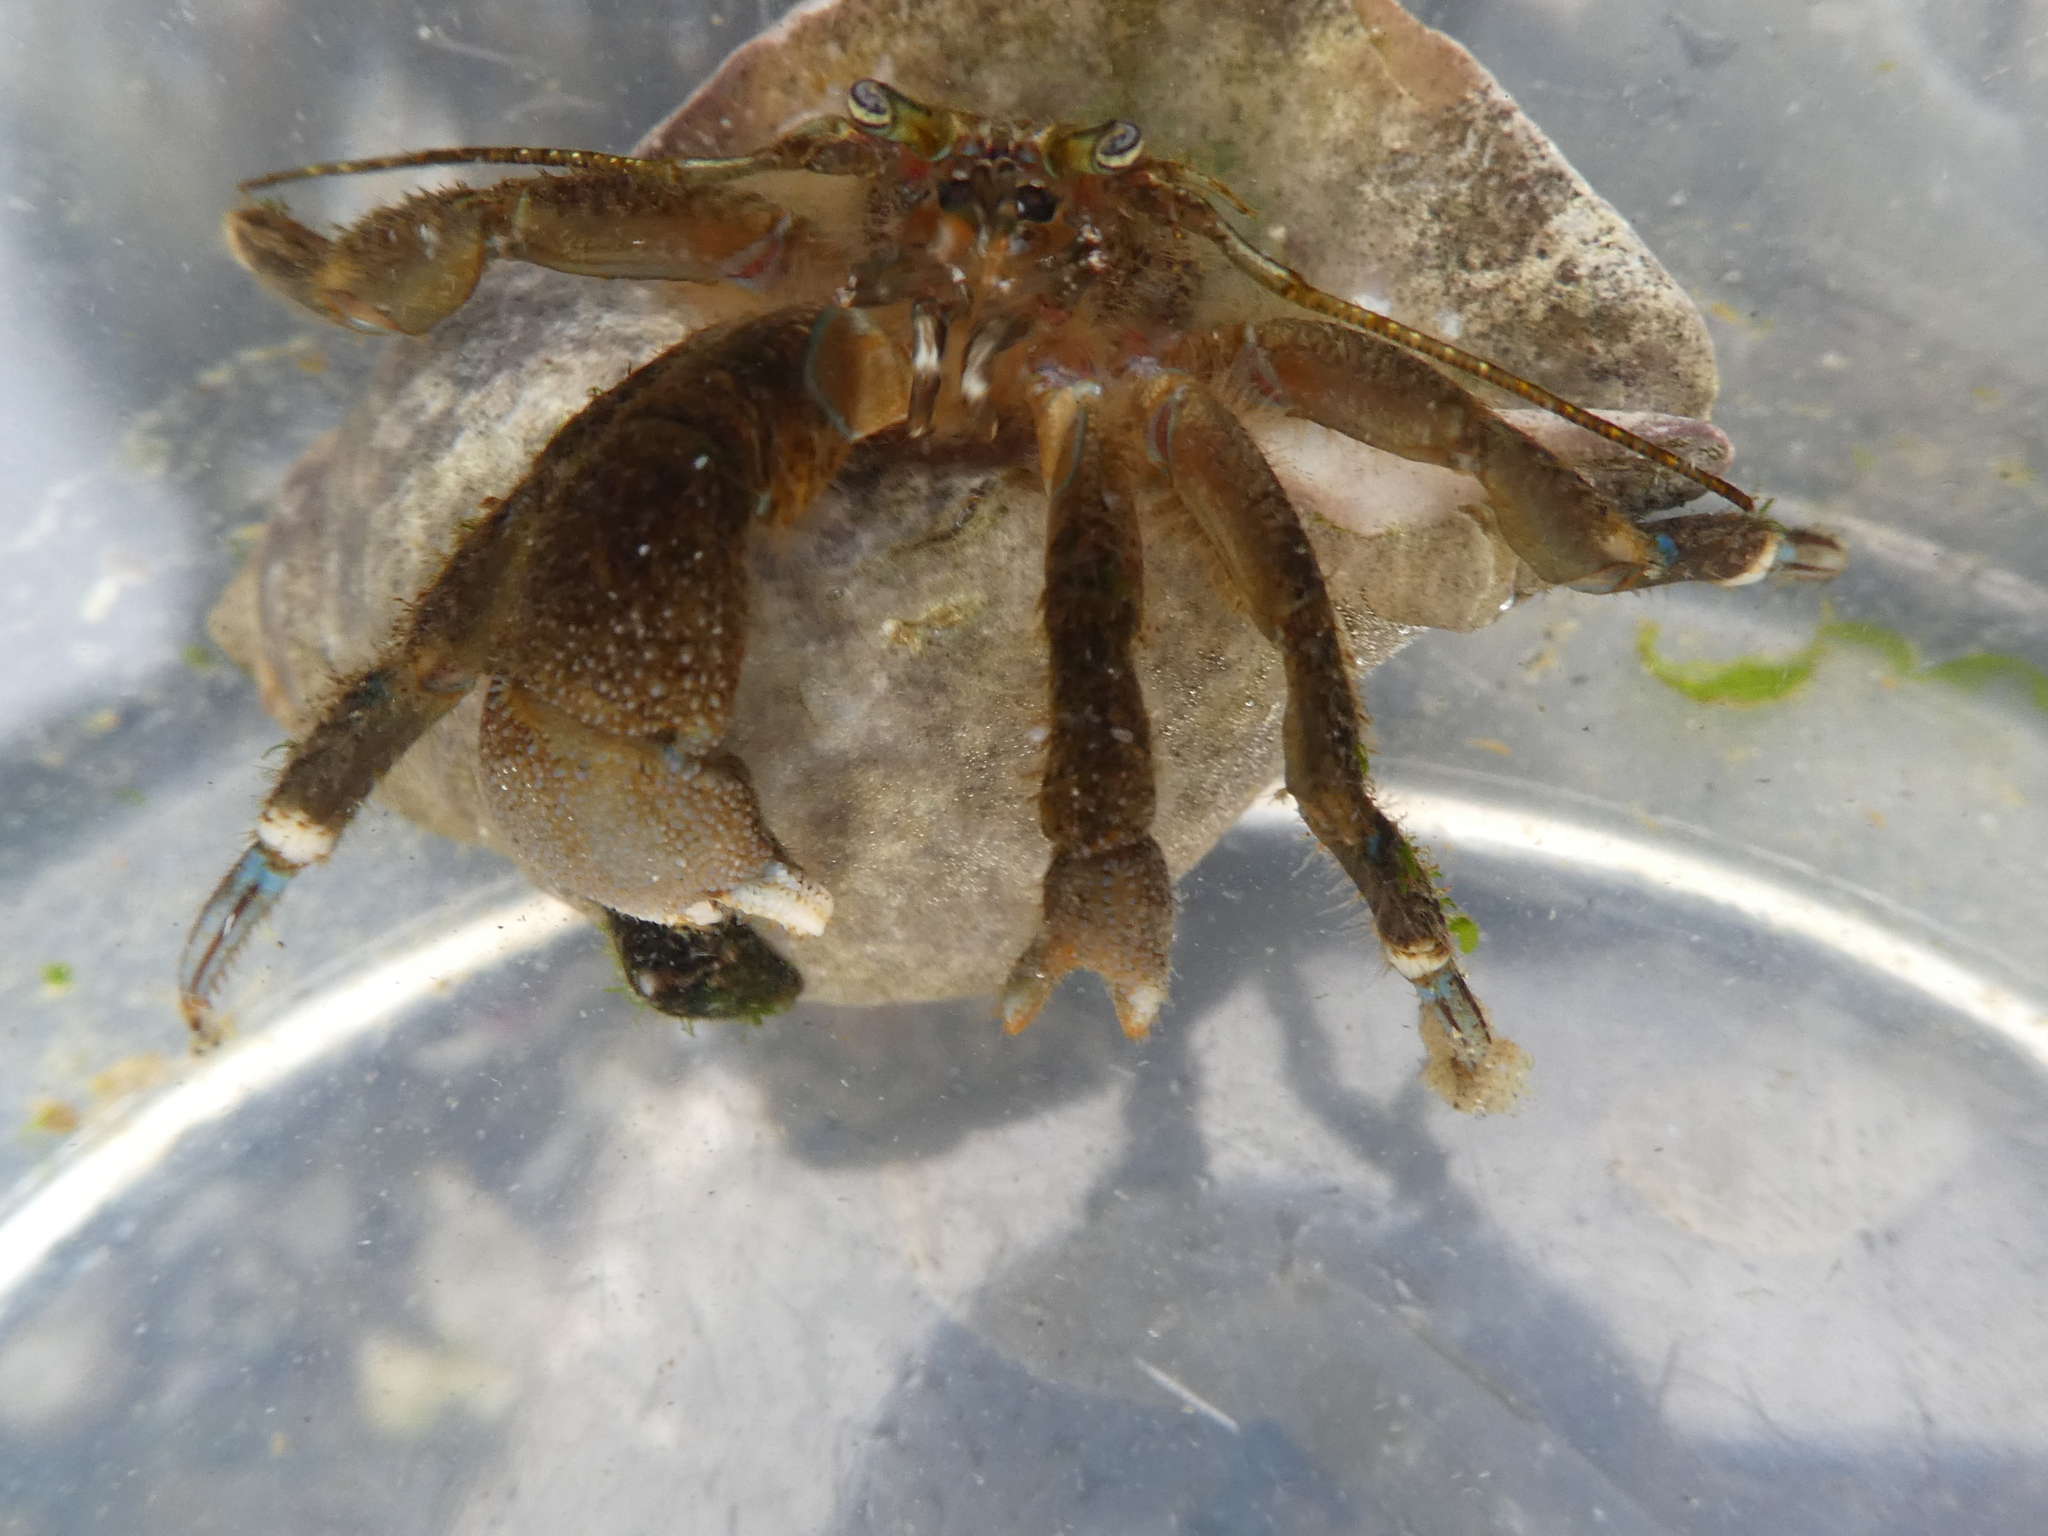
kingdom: Animalia
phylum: Arthropoda
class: Malacostraca
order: Decapoda
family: Paguridae
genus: Pagurus
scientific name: Pagurus hirsutiusculus
